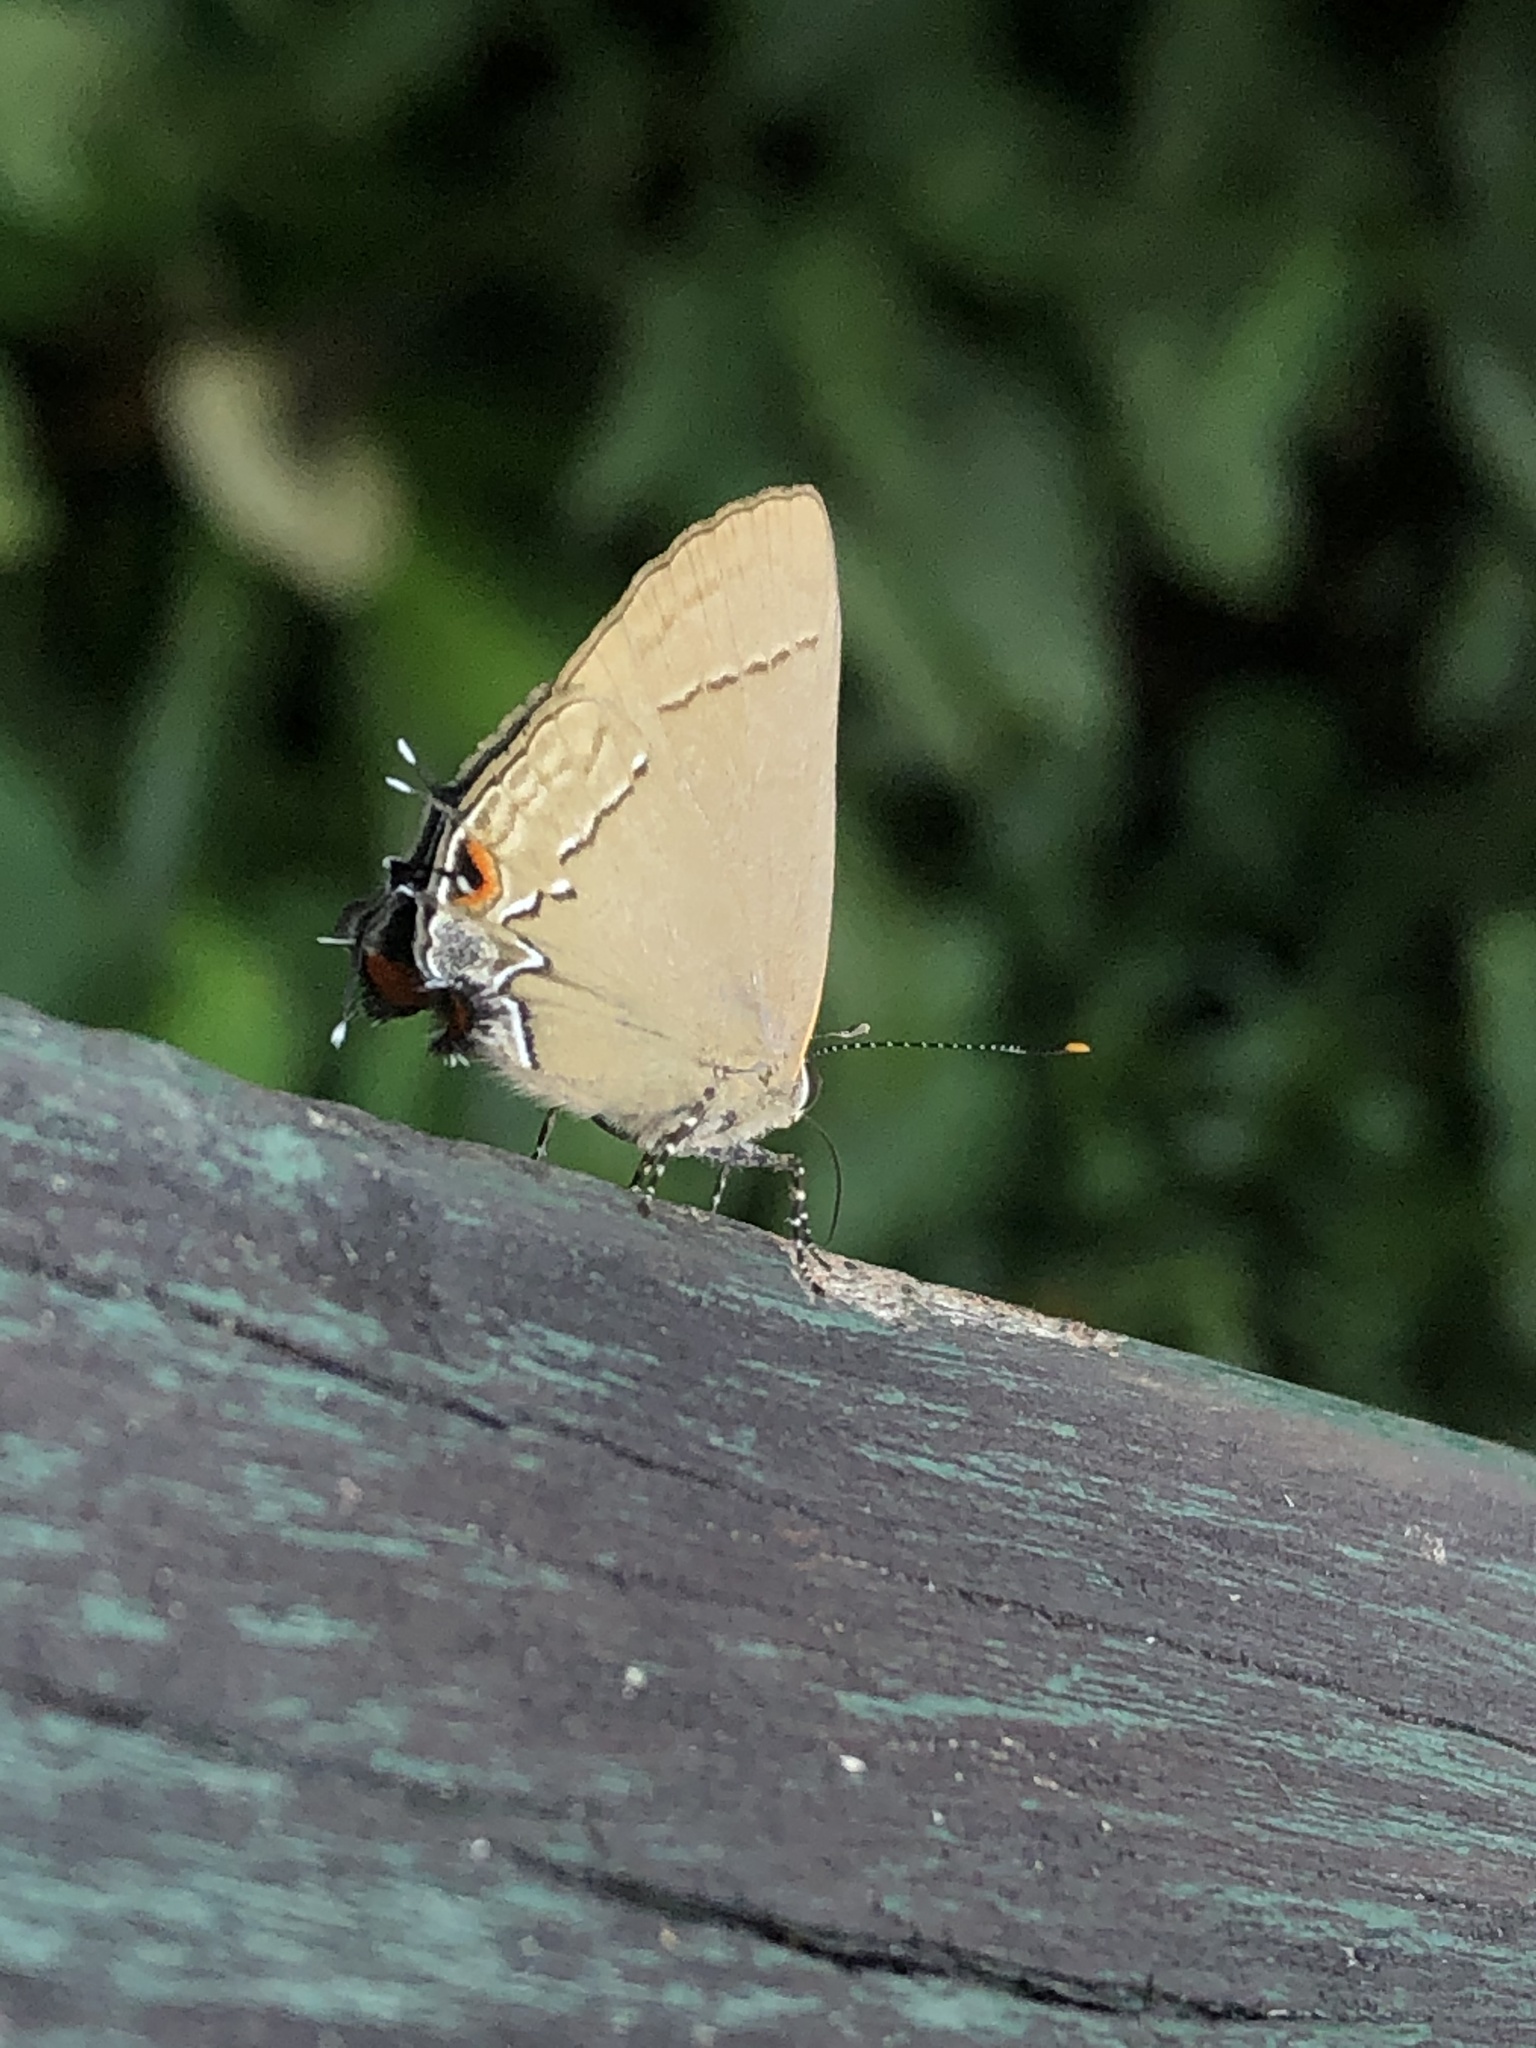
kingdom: Animalia
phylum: Arthropoda
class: Insecta
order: Lepidoptera
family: Lycaenidae
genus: Ziegleria
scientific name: Ziegleria hesperitis
